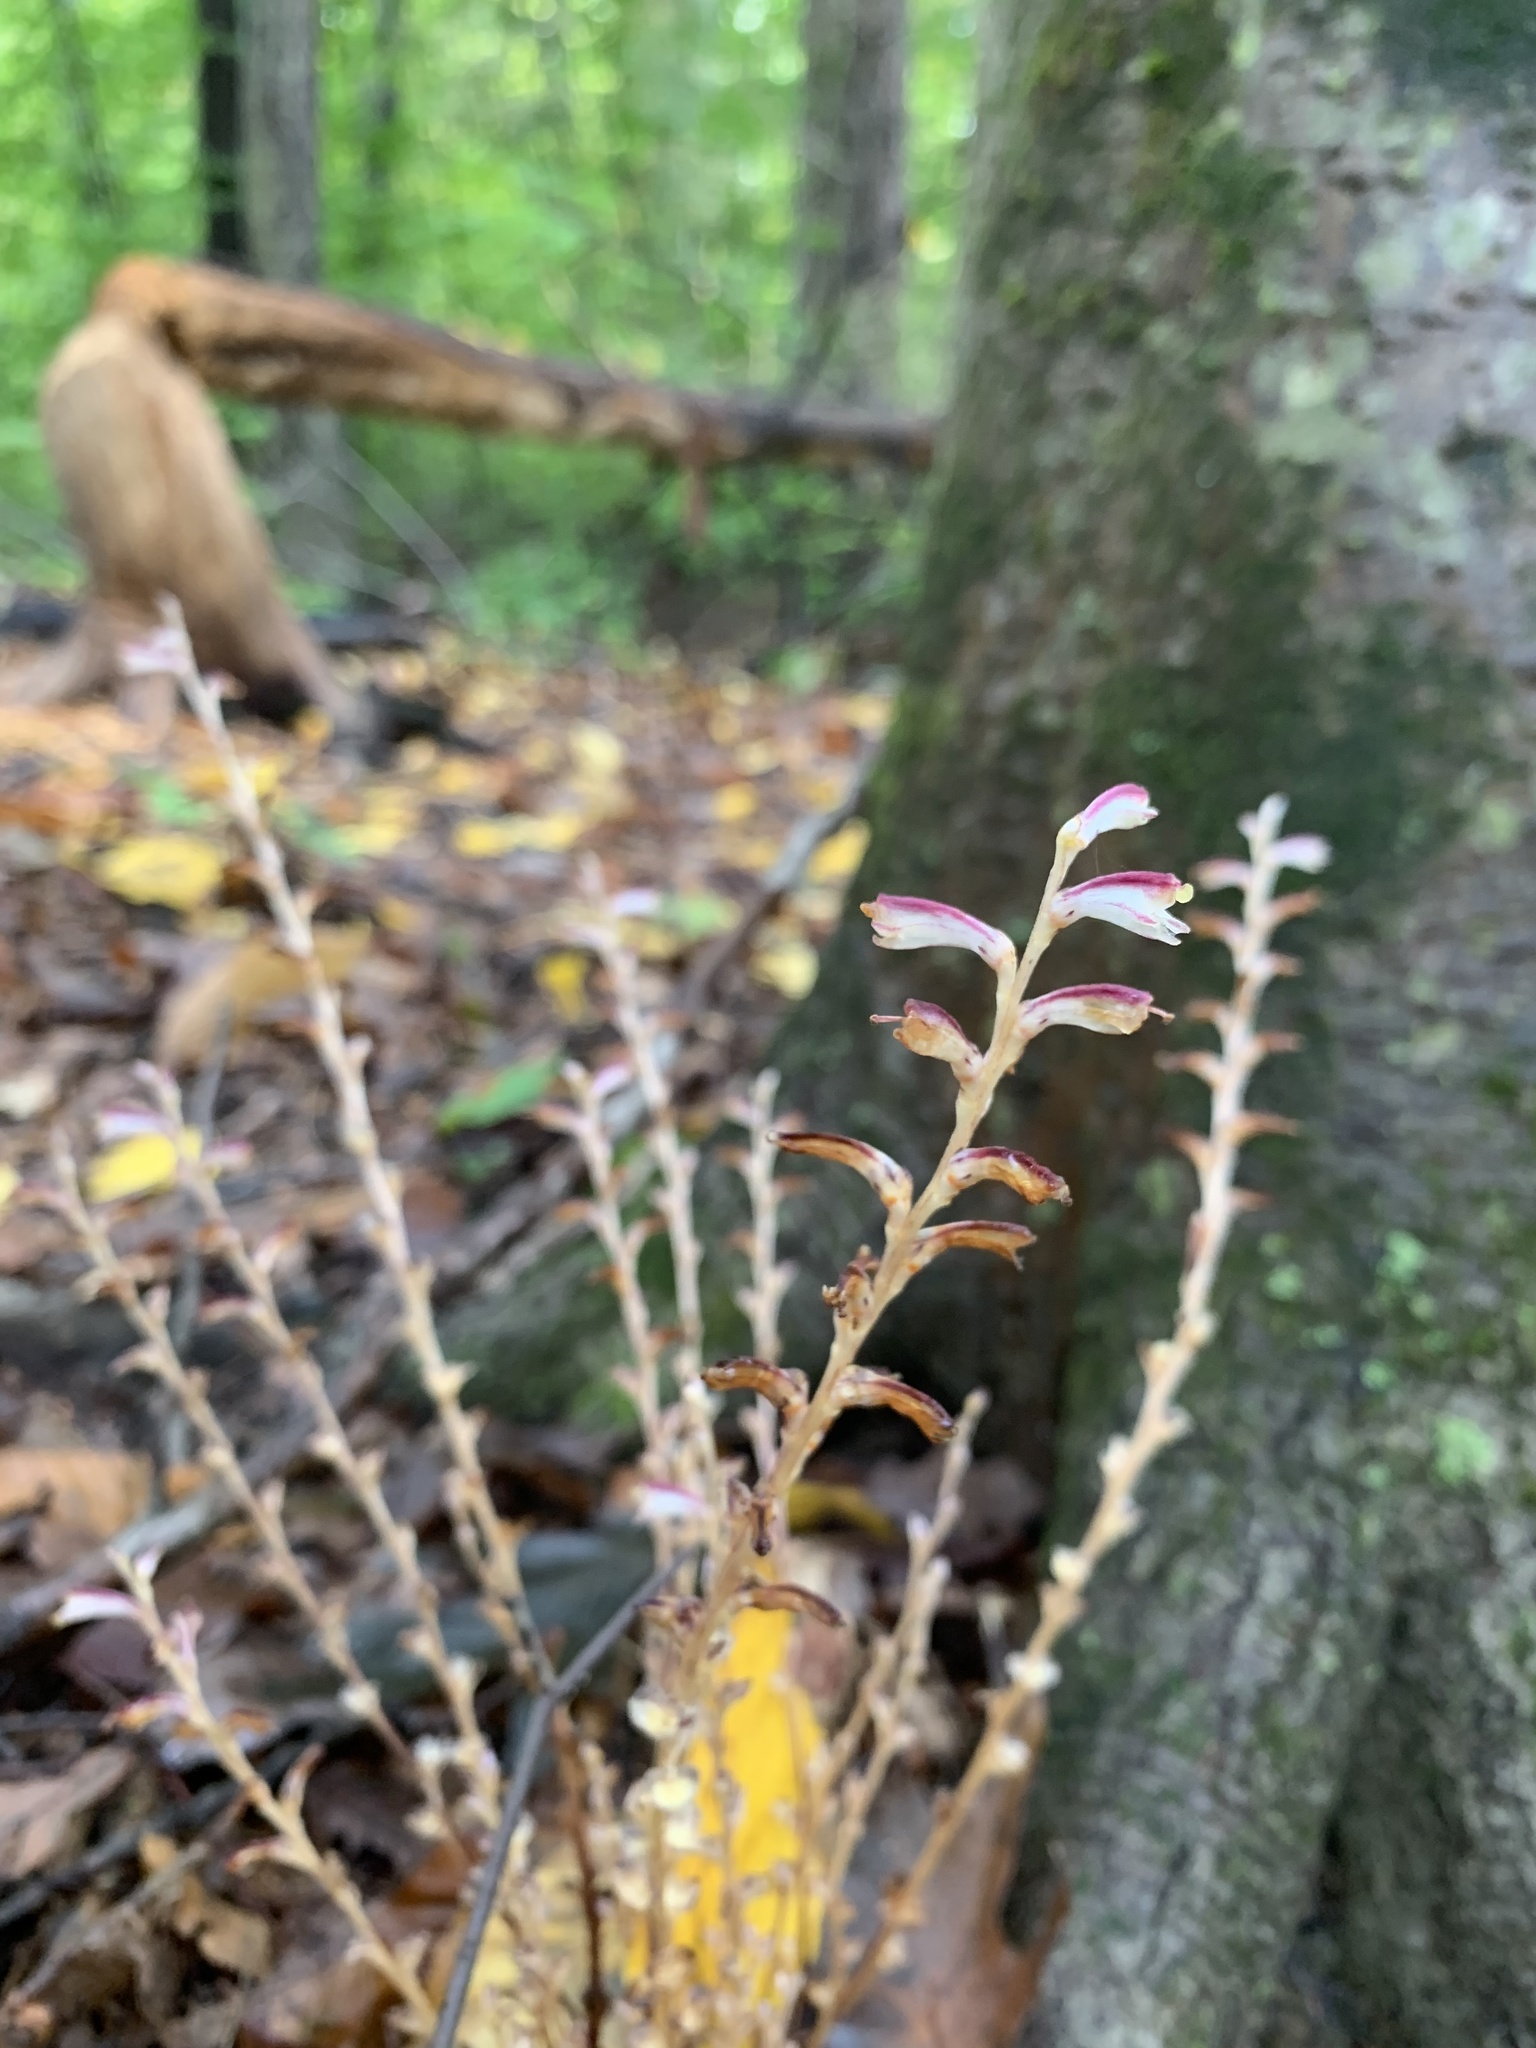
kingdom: Plantae
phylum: Tracheophyta
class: Magnoliopsida
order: Lamiales
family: Orobanchaceae
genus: Epifagus
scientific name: Epifagus virginiana
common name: Beechdrops
